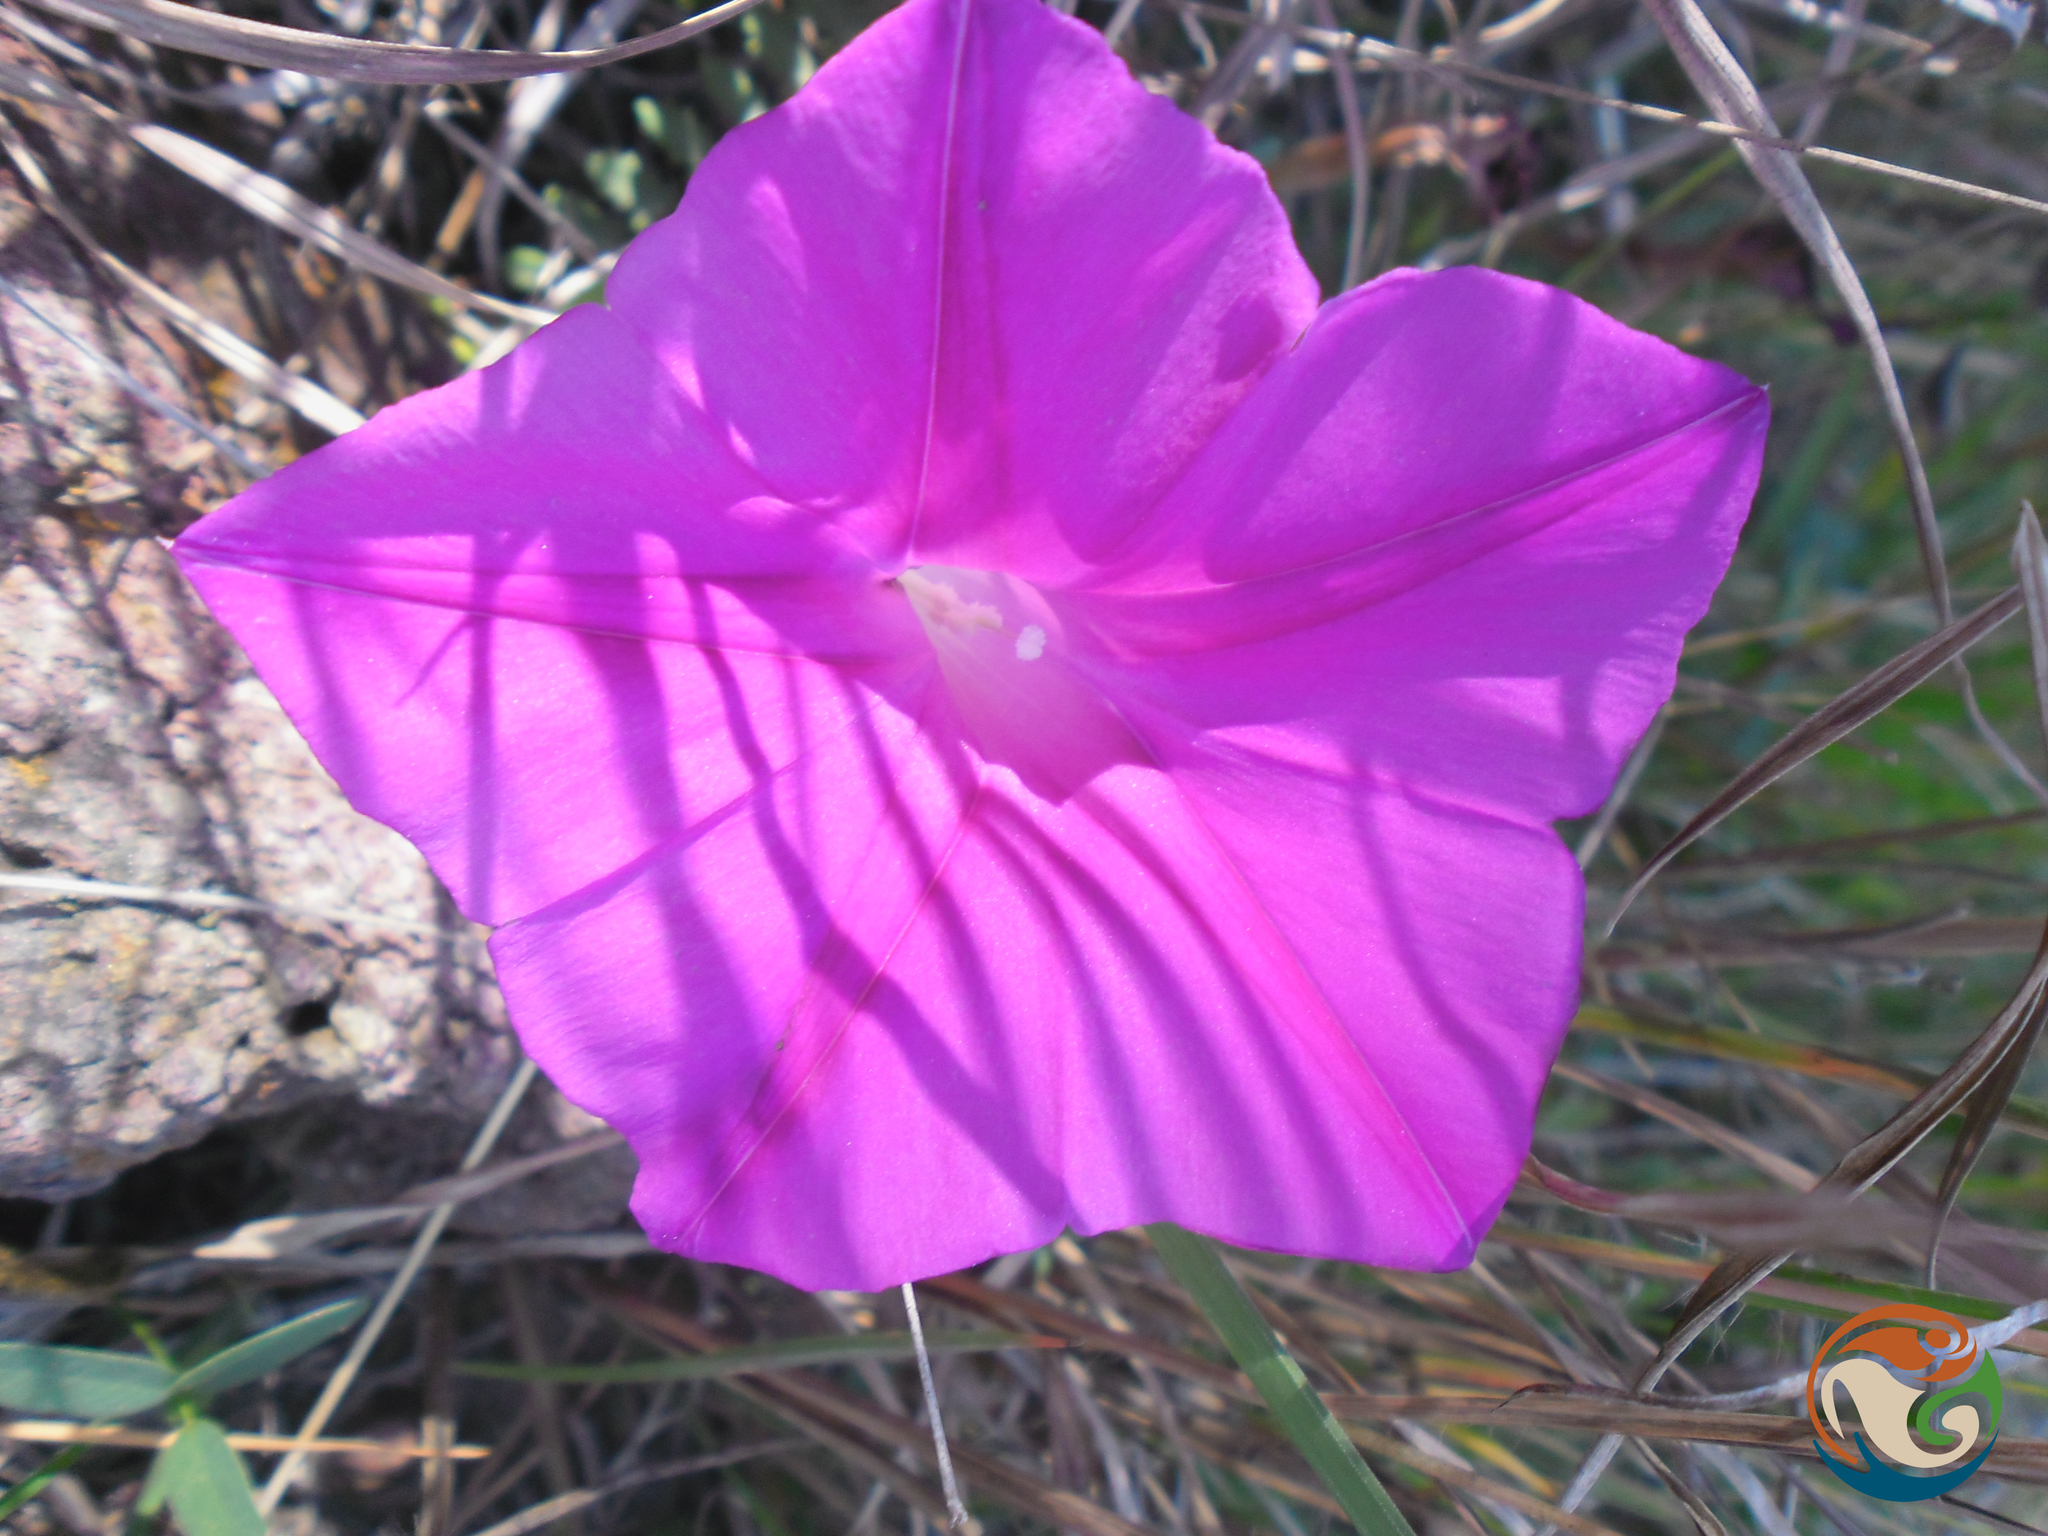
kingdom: Plantae
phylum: Tracheophyta
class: Magnoliopsida
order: Solanales
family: Convolvulaceae
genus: Ipomoea
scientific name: Ipomoea elongata
